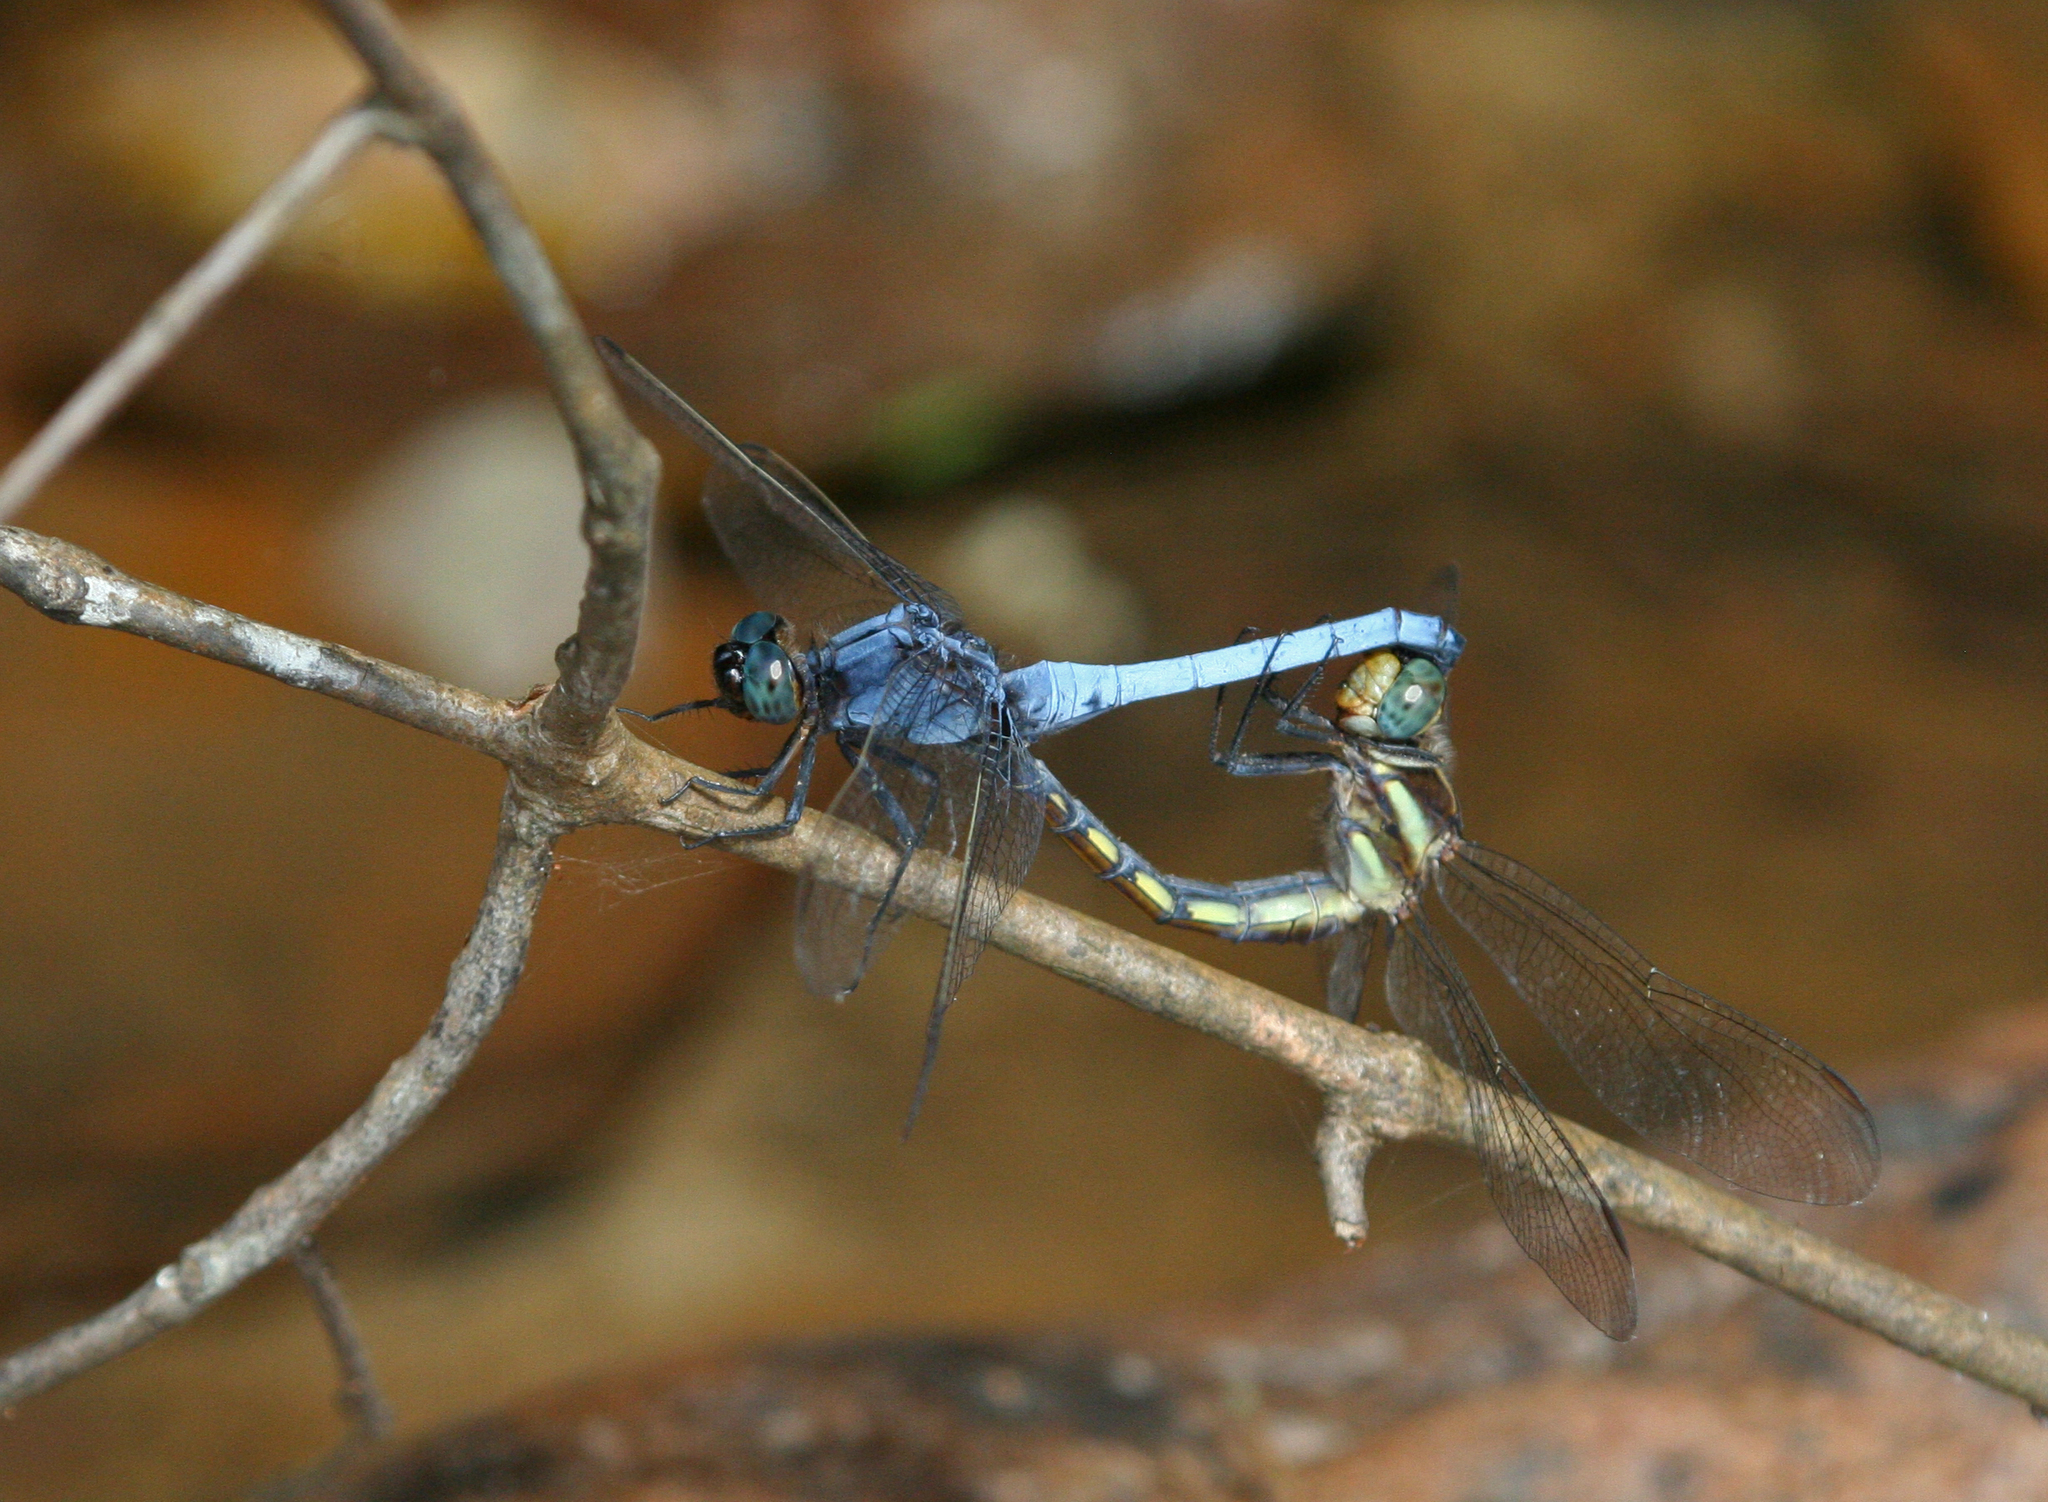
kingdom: Animalia
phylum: Arthropoda
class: Insecta
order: Odonata
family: Libellulidae
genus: Orthetrum
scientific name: Orthetrum glaucum
